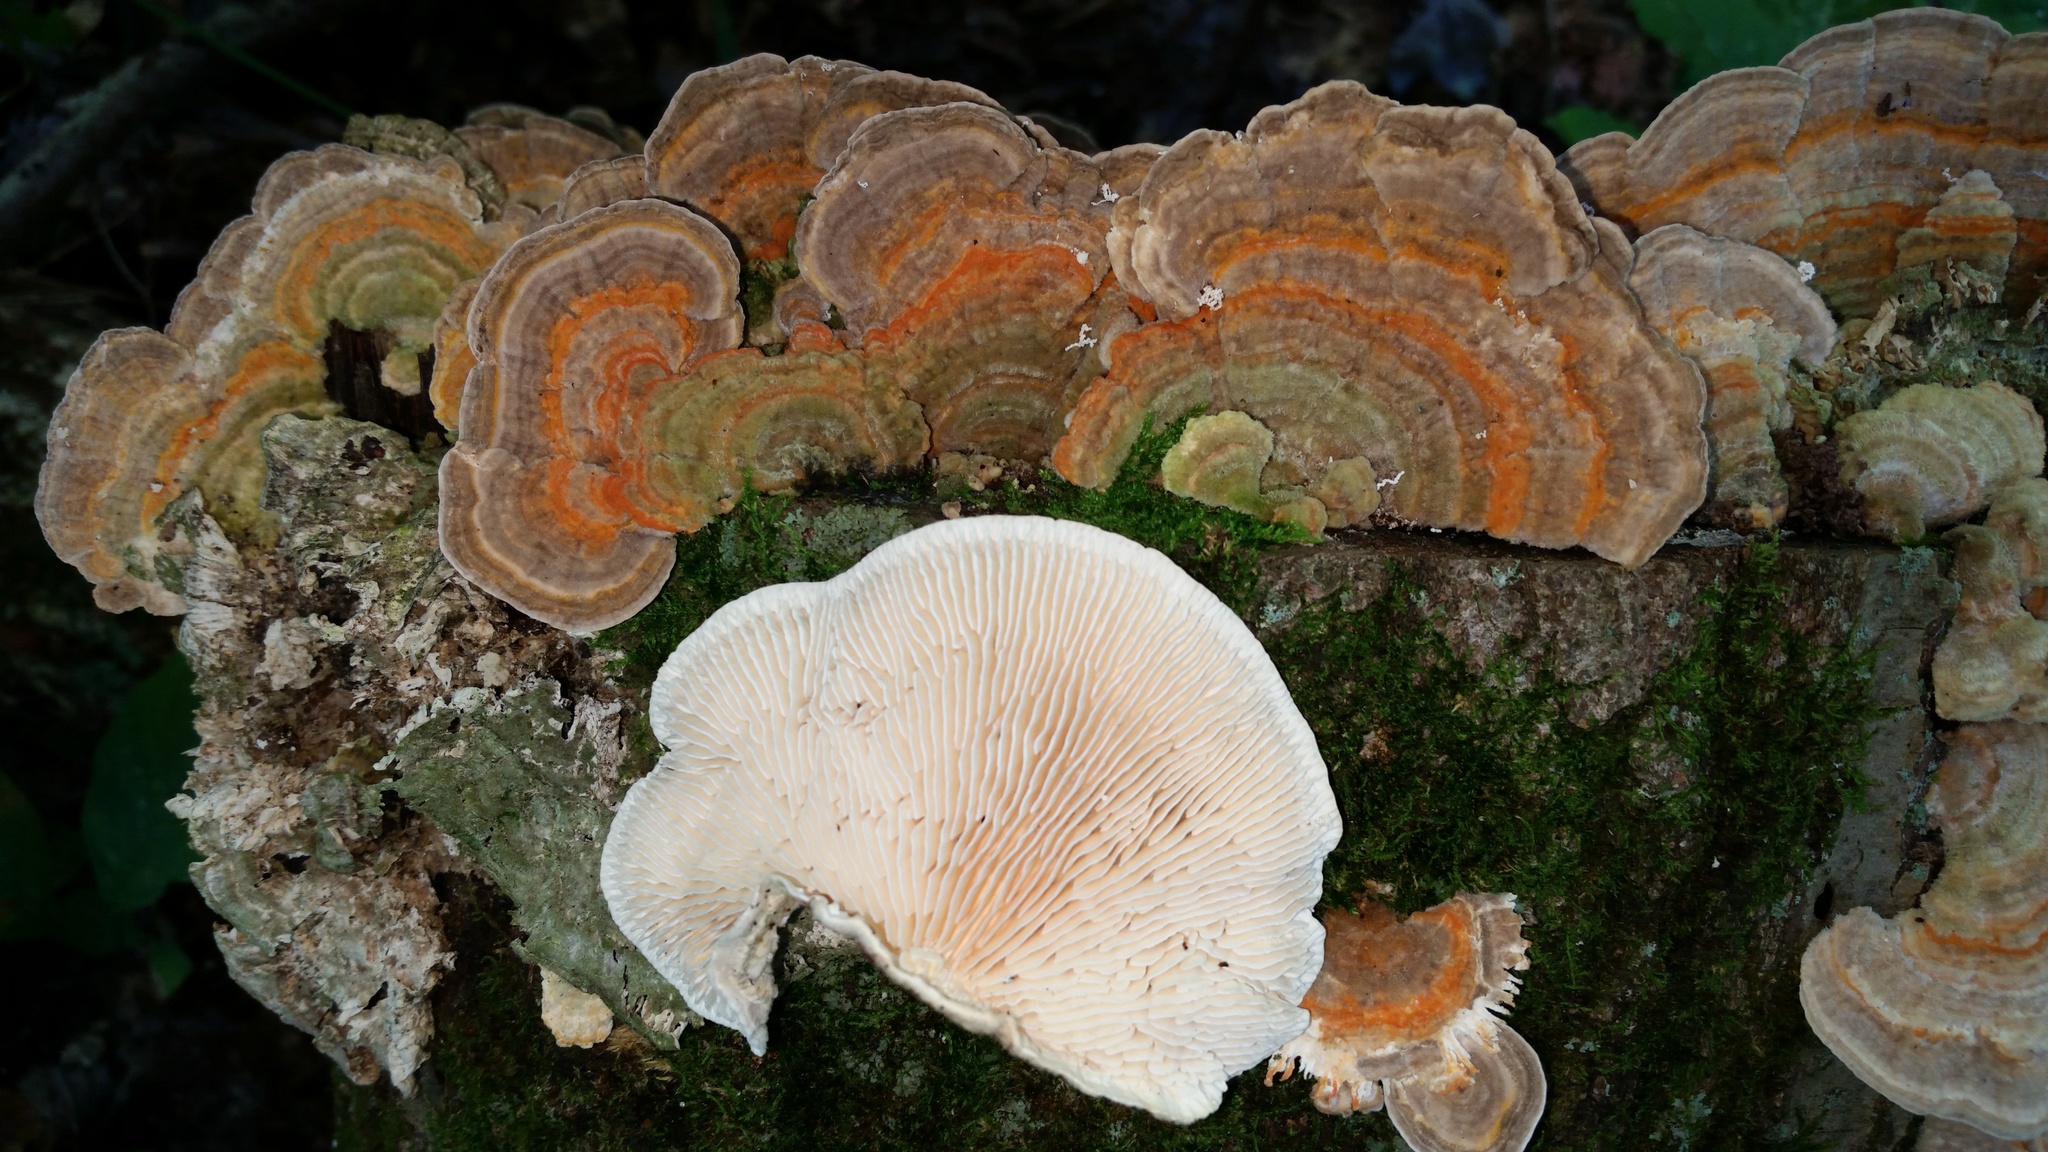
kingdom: Fungi
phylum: Basidiomycota
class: Agaricomycetes
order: Polyporales
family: Polyporaceae
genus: Lenzites
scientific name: Lenzites betulinus
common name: Birch mazegill
